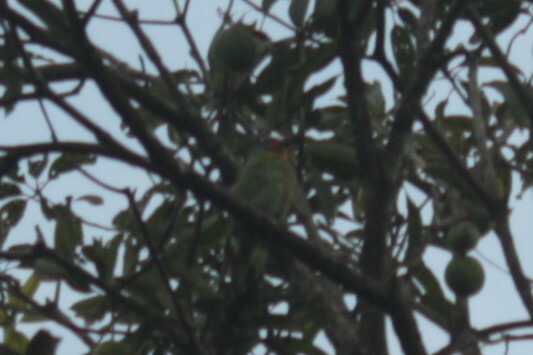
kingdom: Animalia
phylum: Chordata
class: Aves
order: Piciformes
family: Megalaimidae
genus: Psilopogon
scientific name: Psilopogon nuchalis
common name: Taiwan barbet
